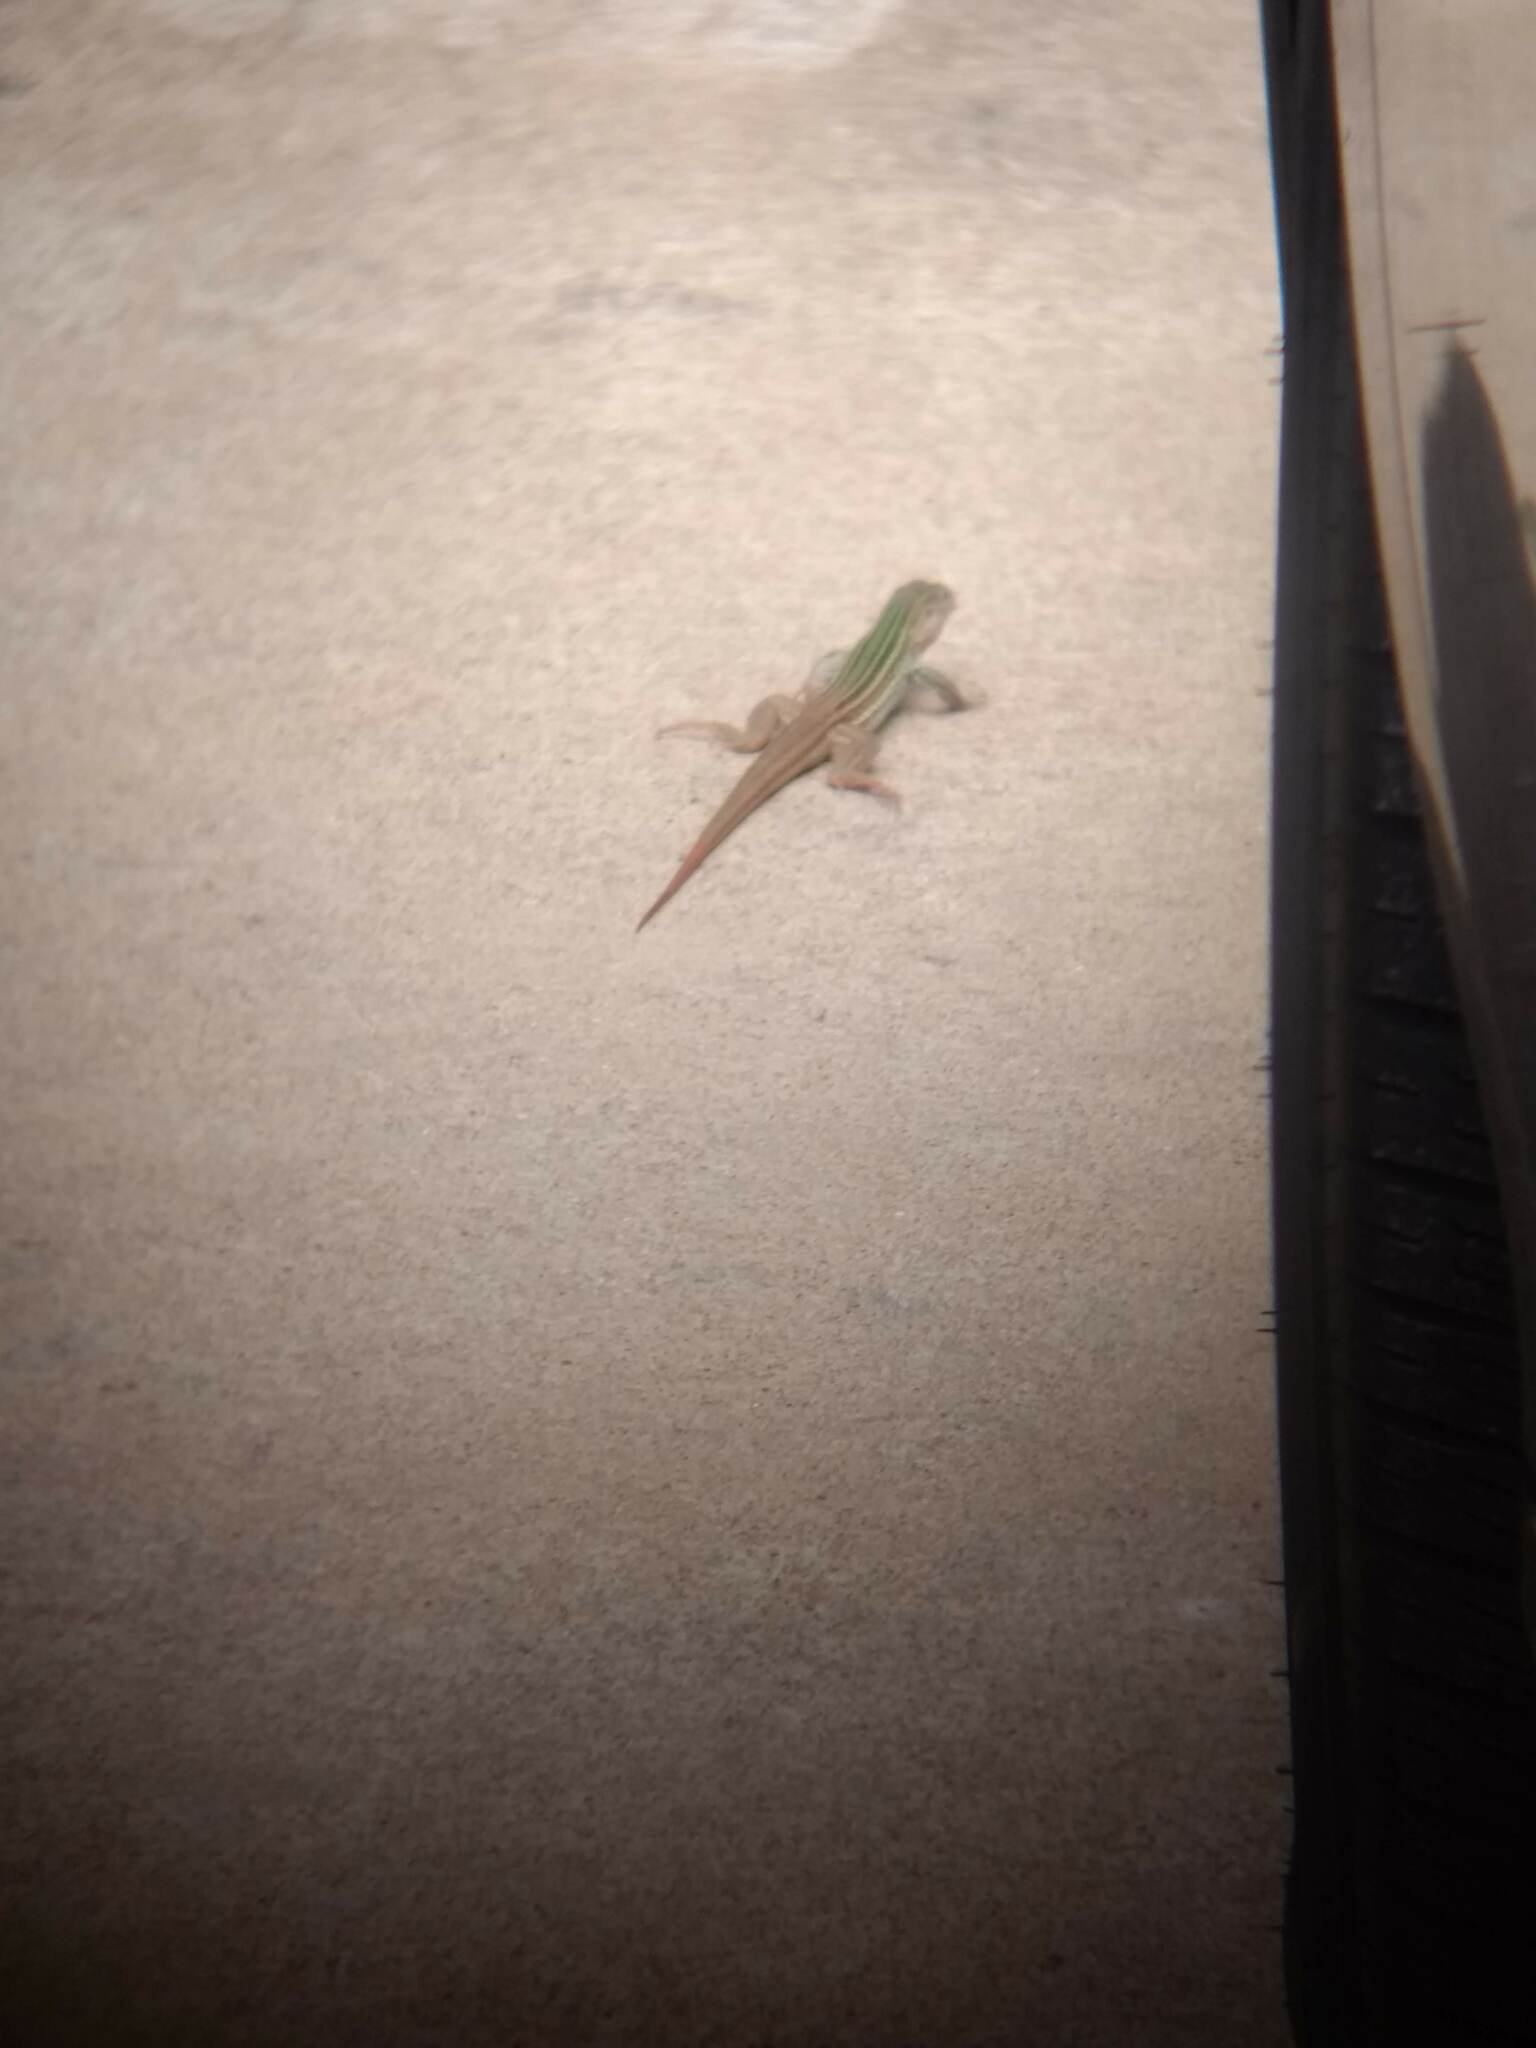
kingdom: Animalia
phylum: Chordata
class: Squamata
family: Teiidae
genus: Aspidoscelis
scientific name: Aspidoscelis gularis
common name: Eastern spotted whiptail
